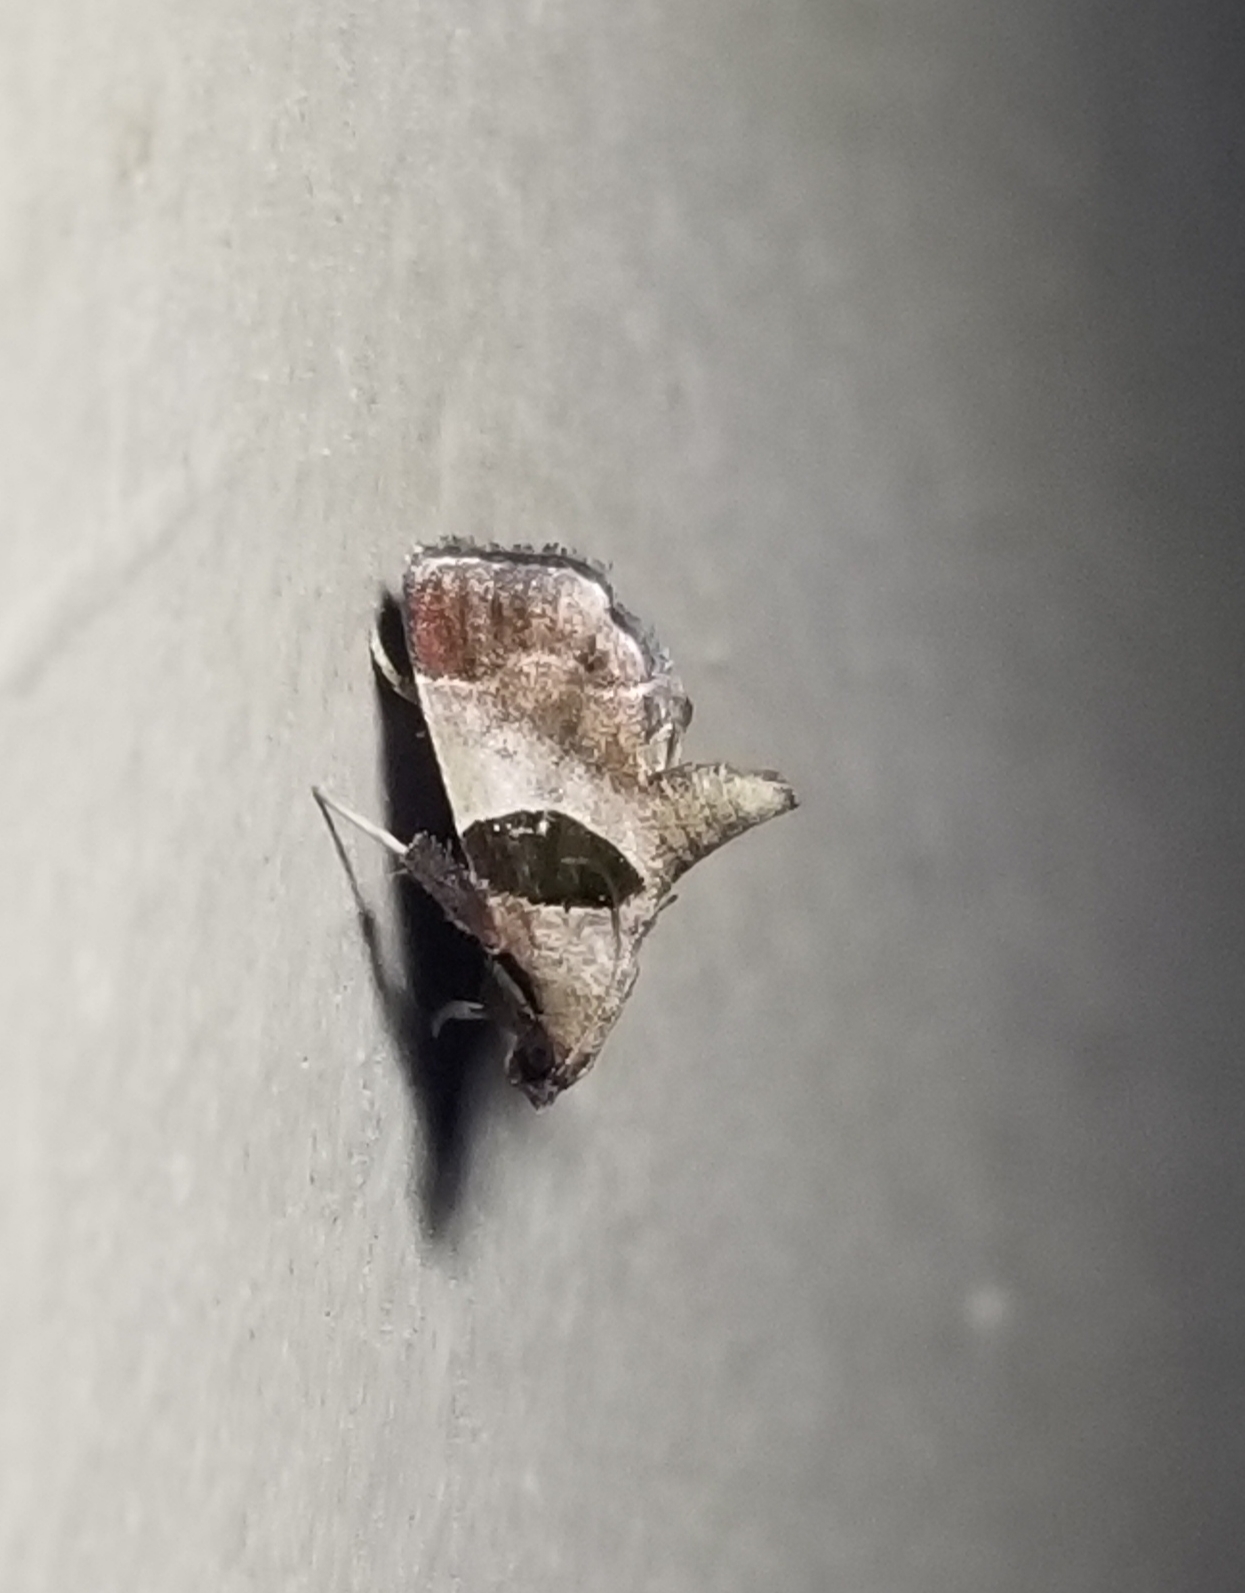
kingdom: Animalia
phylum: Arthropoda
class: Insecta
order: Lepidoptera
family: Pyralidae
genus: Tosale
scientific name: Tosale oviplagalis
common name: Dimorphic tosale moth
